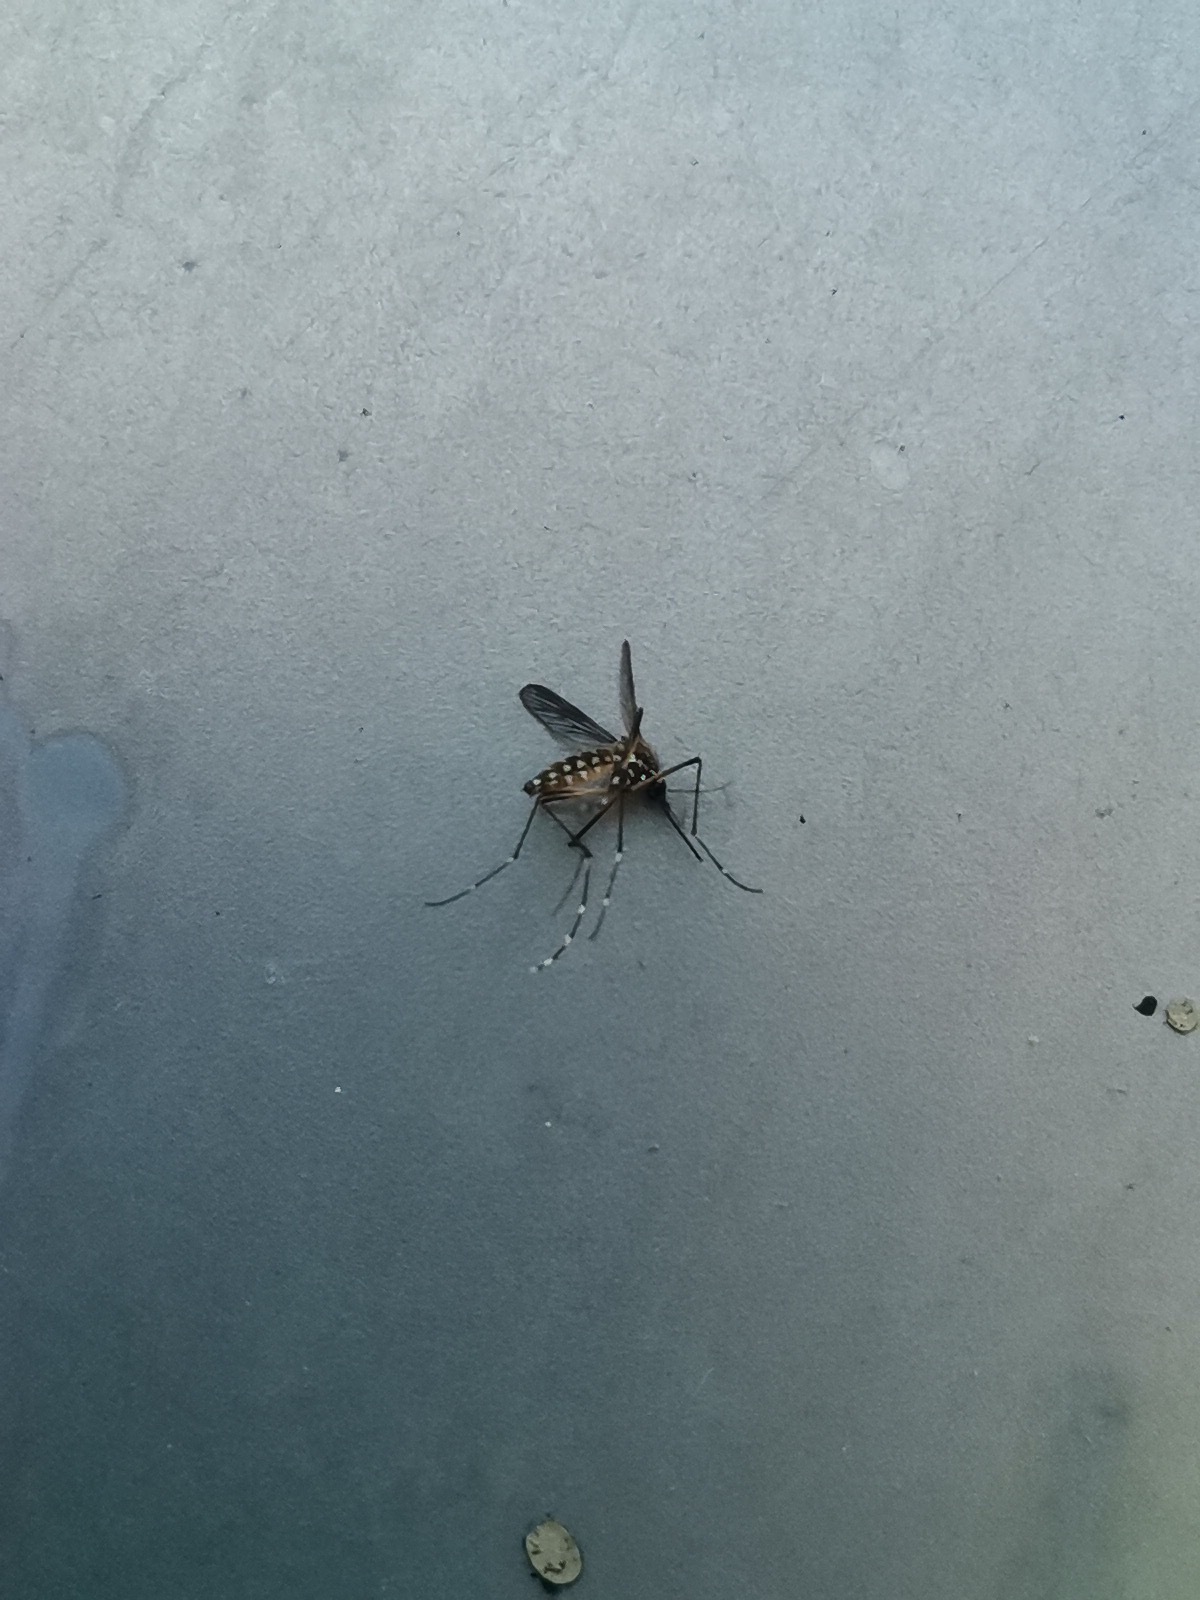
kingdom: Animalia
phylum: Arthropoda
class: Insecta
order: Diptera
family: Culicidae
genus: Aedes
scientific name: Aedes albopictus
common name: Tiger mosquito
